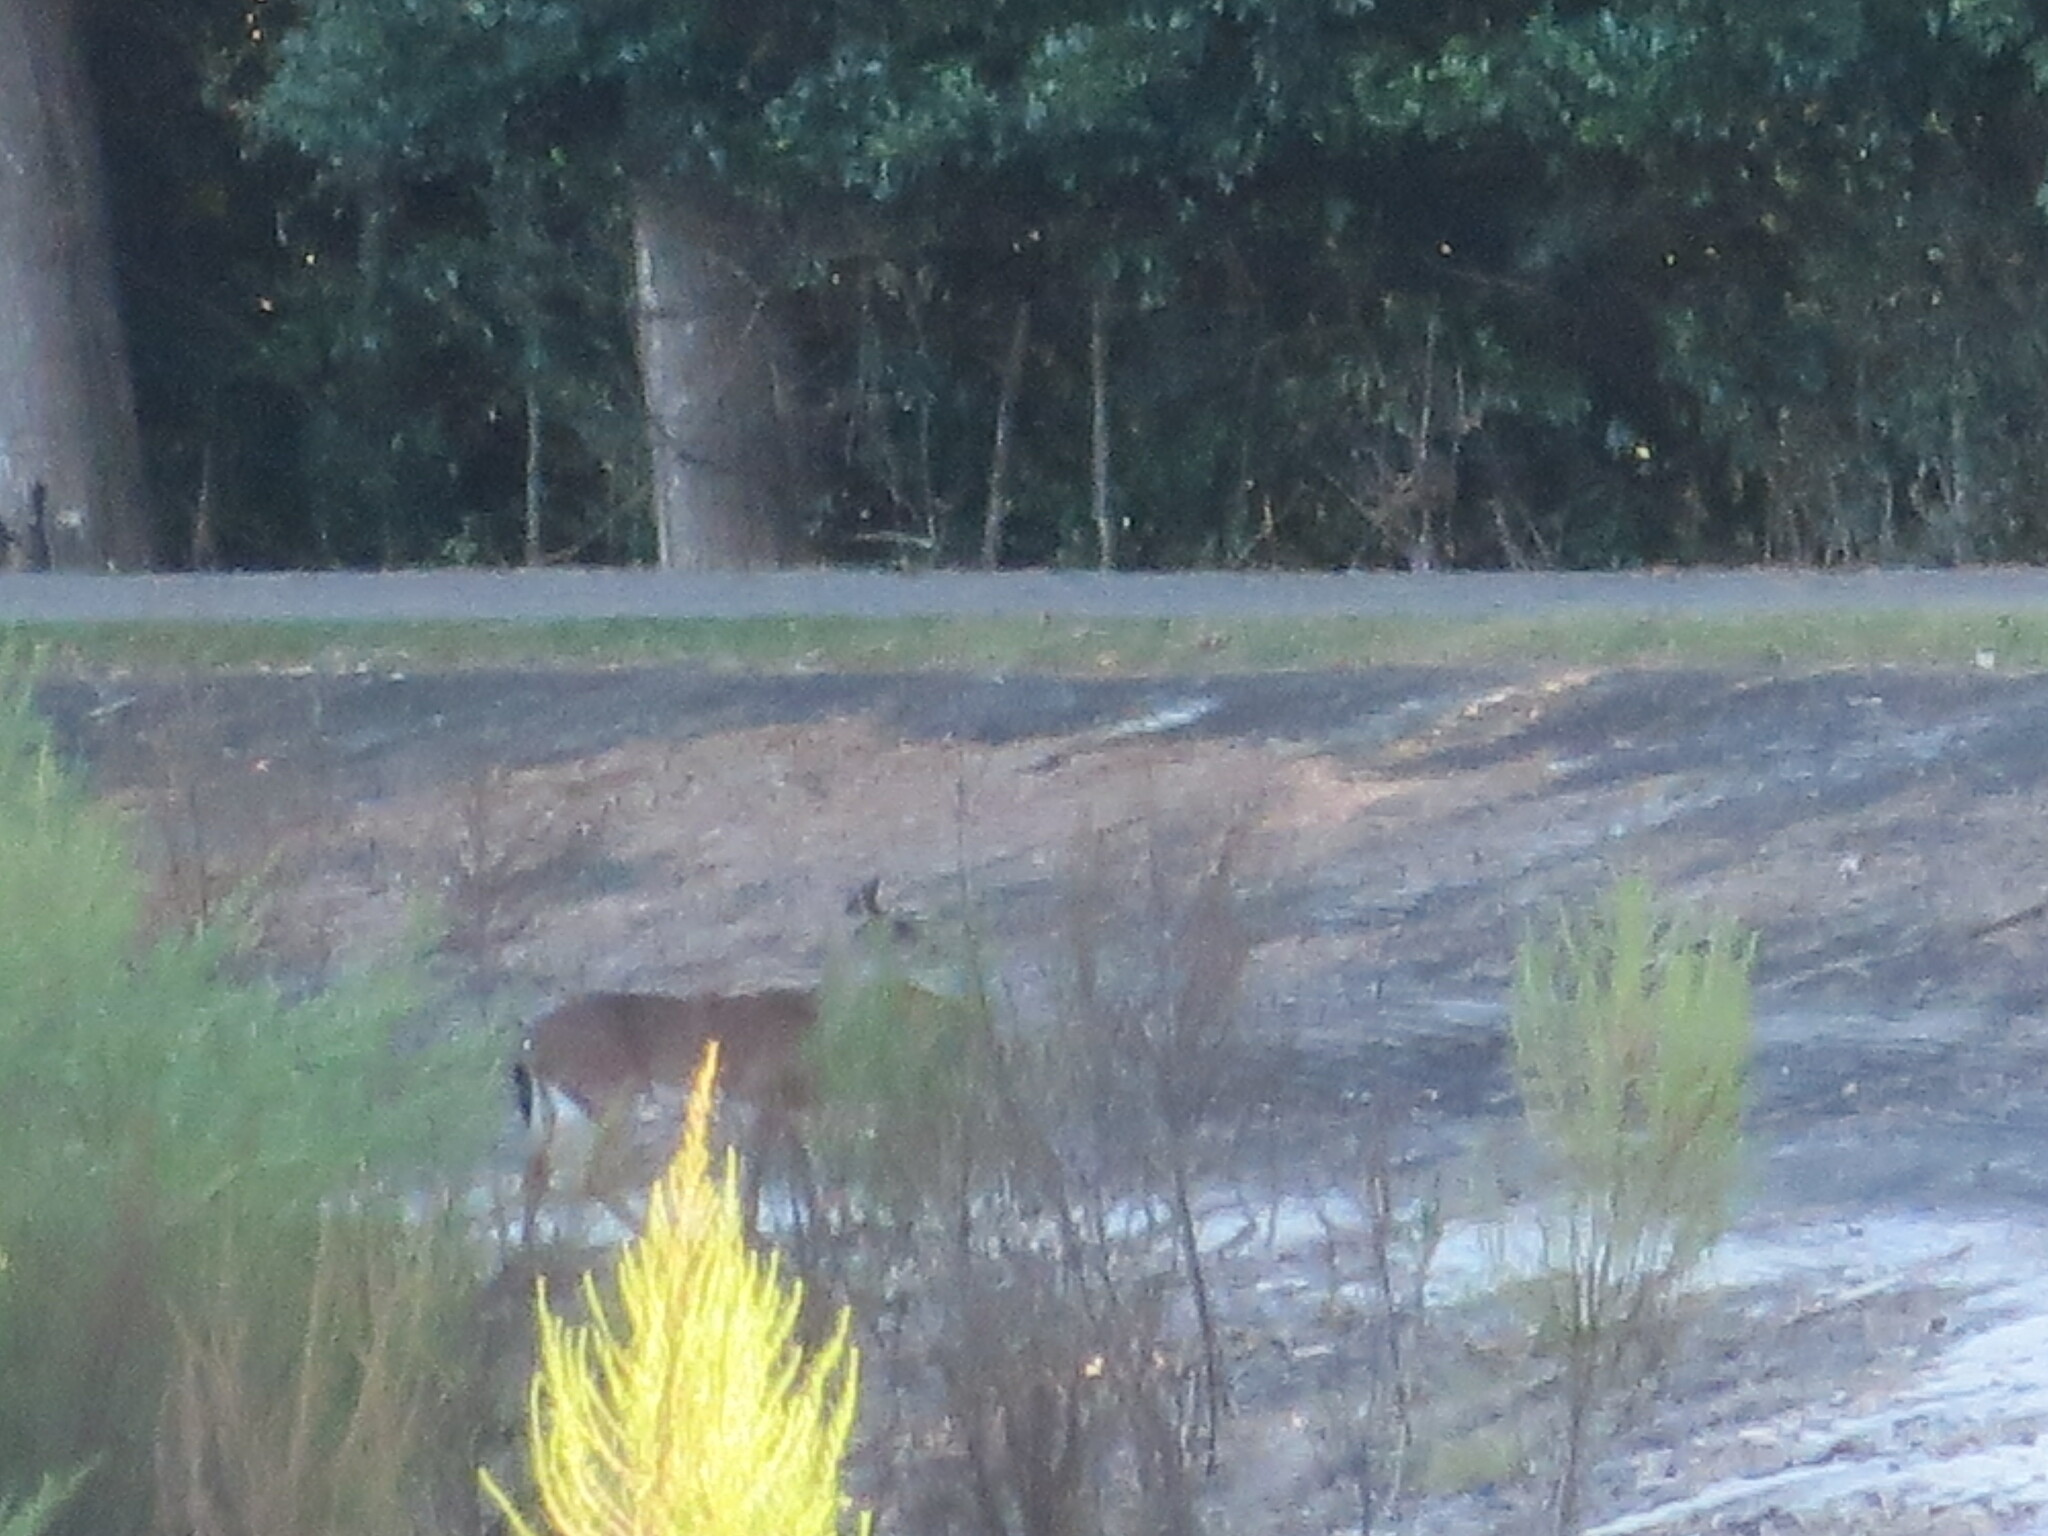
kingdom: Animalia
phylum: Chordata
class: Mammalia
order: Artiodactyla
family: Cervidae
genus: Odocoileus
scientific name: Odocoileus virginianus
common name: White-tailed deer
